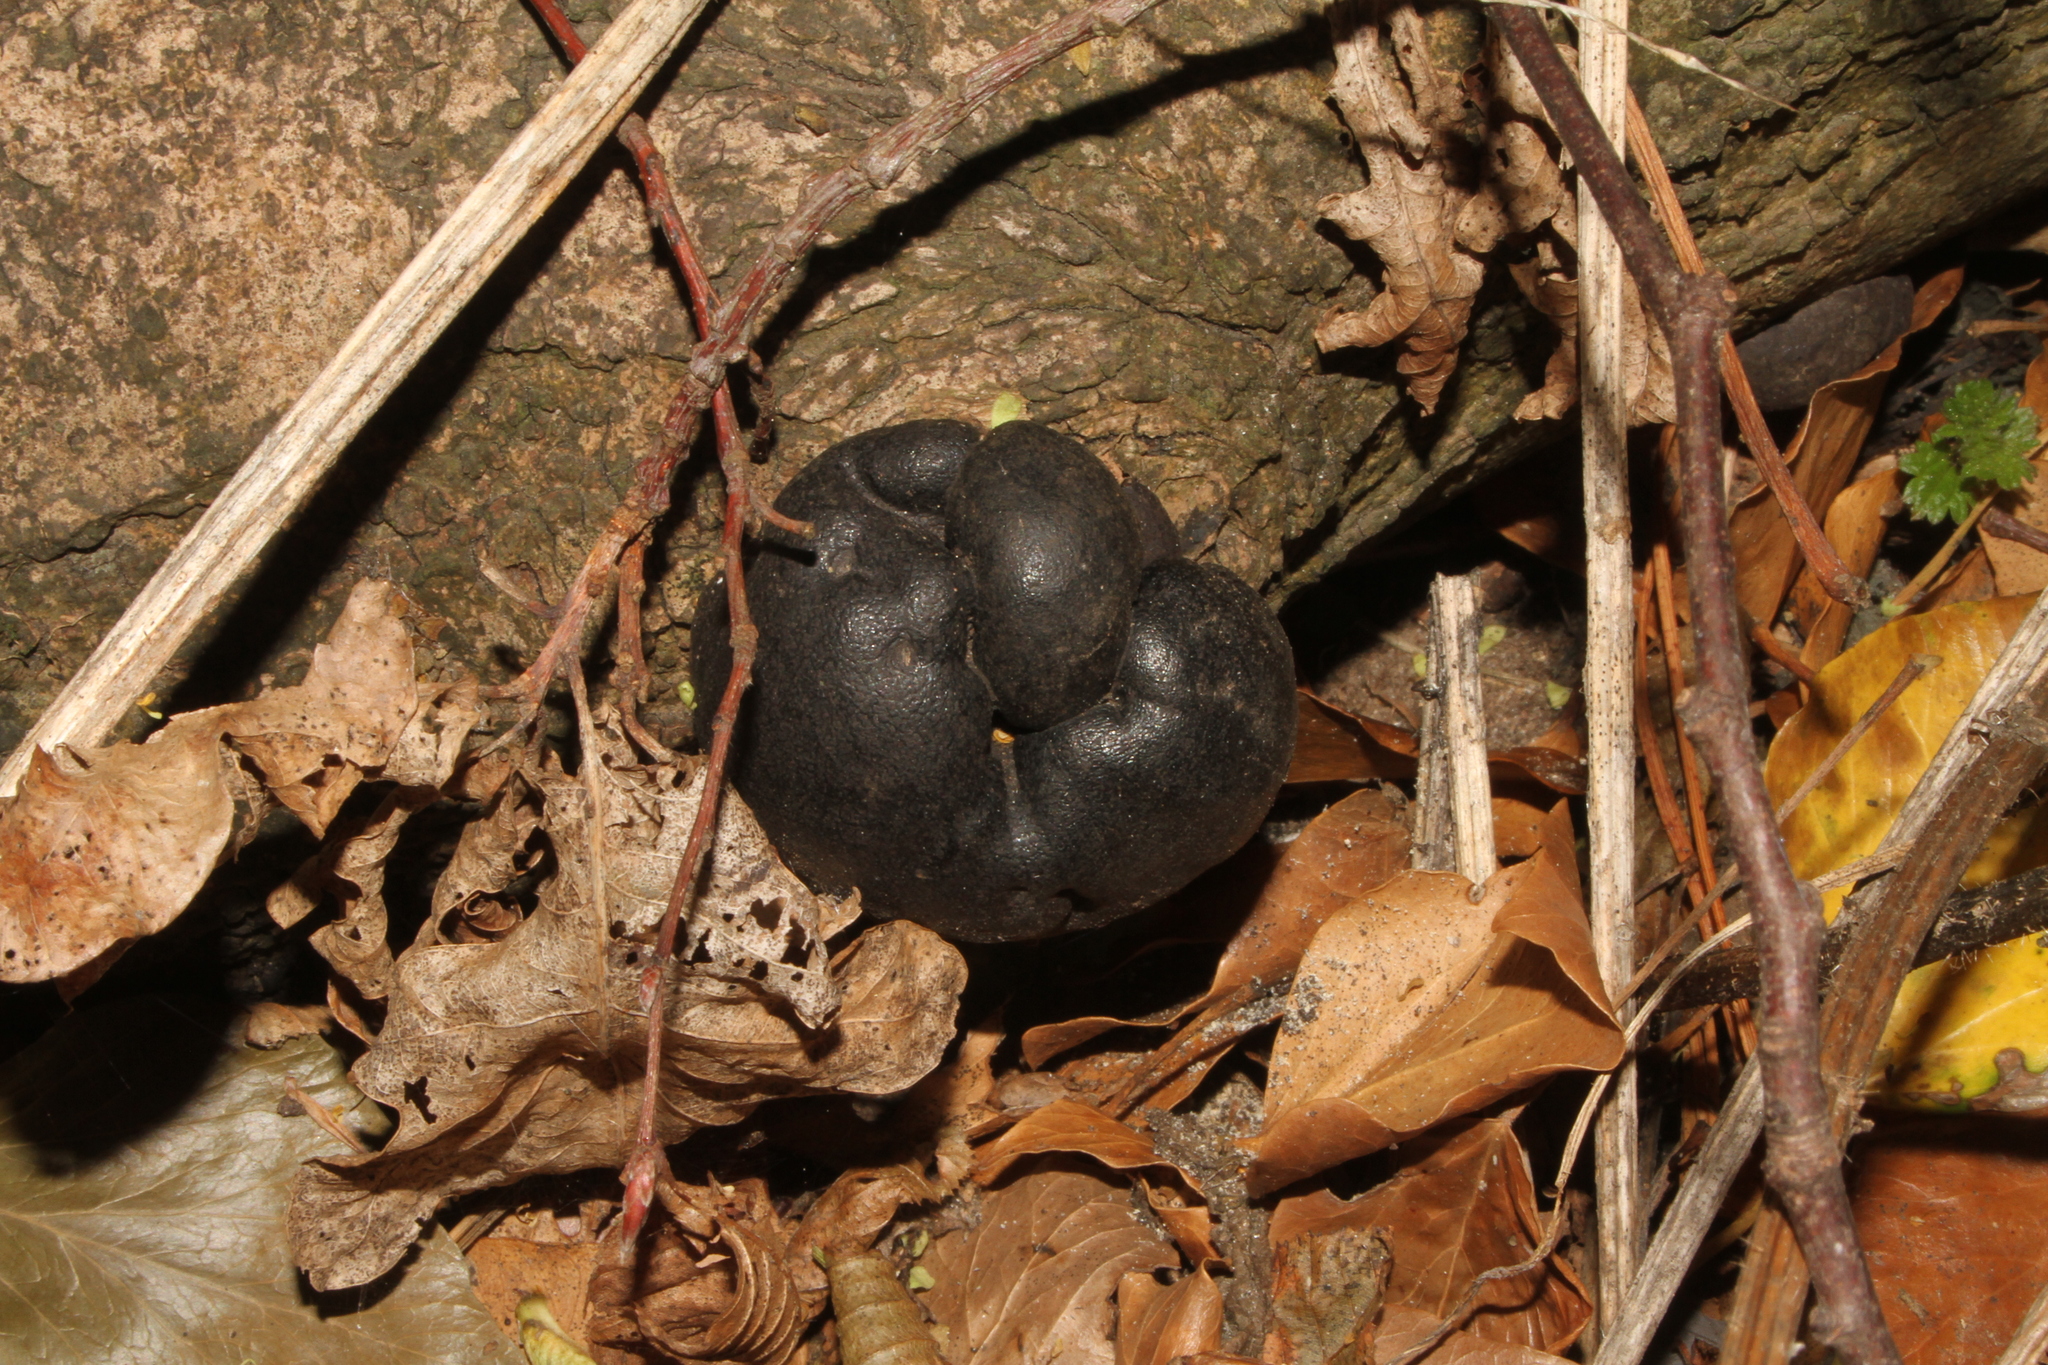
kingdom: Fungi
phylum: Ascomycota
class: Sordariomycetes
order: Xylariales
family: Hypoxylaceae
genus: Daldinia
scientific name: Daldinia concentrica
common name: Cramp balls
